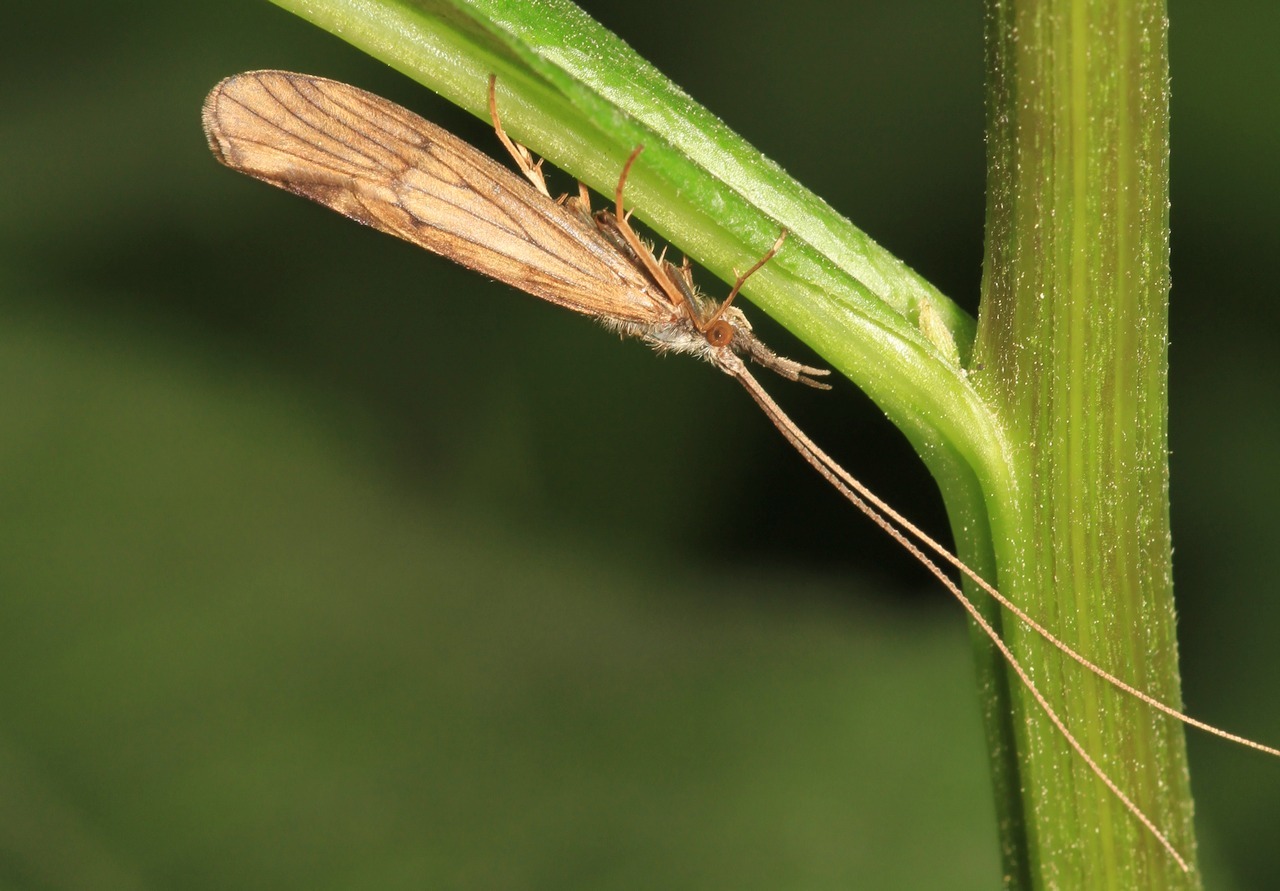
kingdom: Animalia
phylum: Arthropoda
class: Insecta
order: Trichoptera
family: Odontoceridae
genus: Odontocerum
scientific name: Odontocerum albicorne
